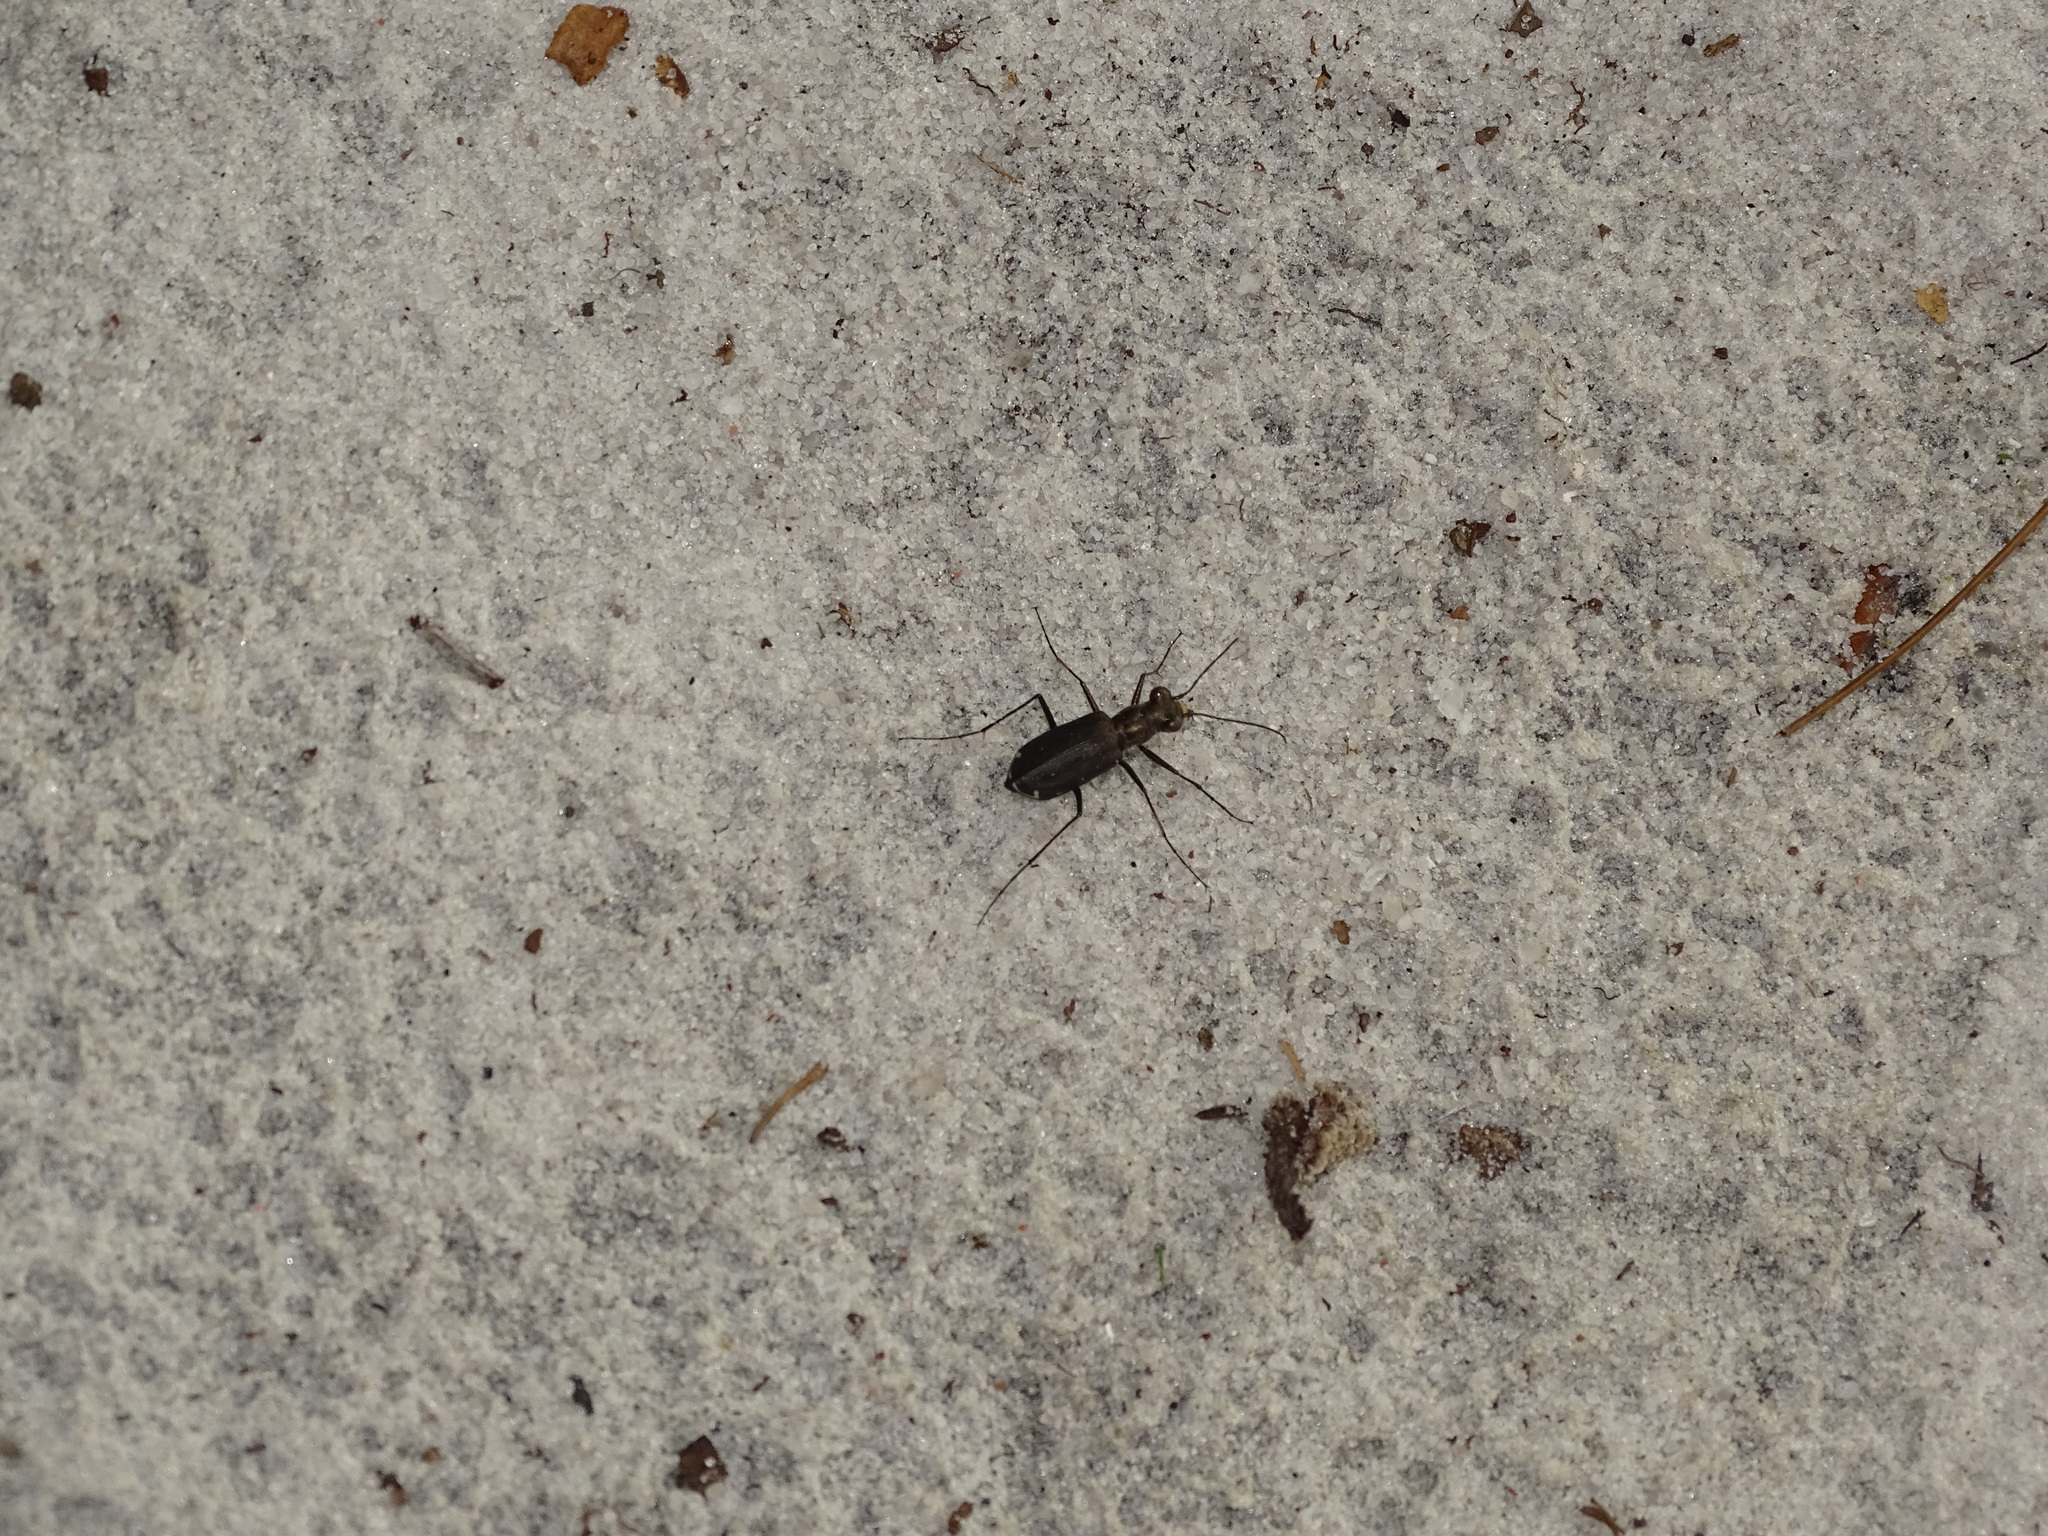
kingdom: Animalia
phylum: Arthropoda
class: Insecta
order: Coleoptera
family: Carabidae
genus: Cicindela
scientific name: Cicindela punctulata
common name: Punctured tiger beetle
